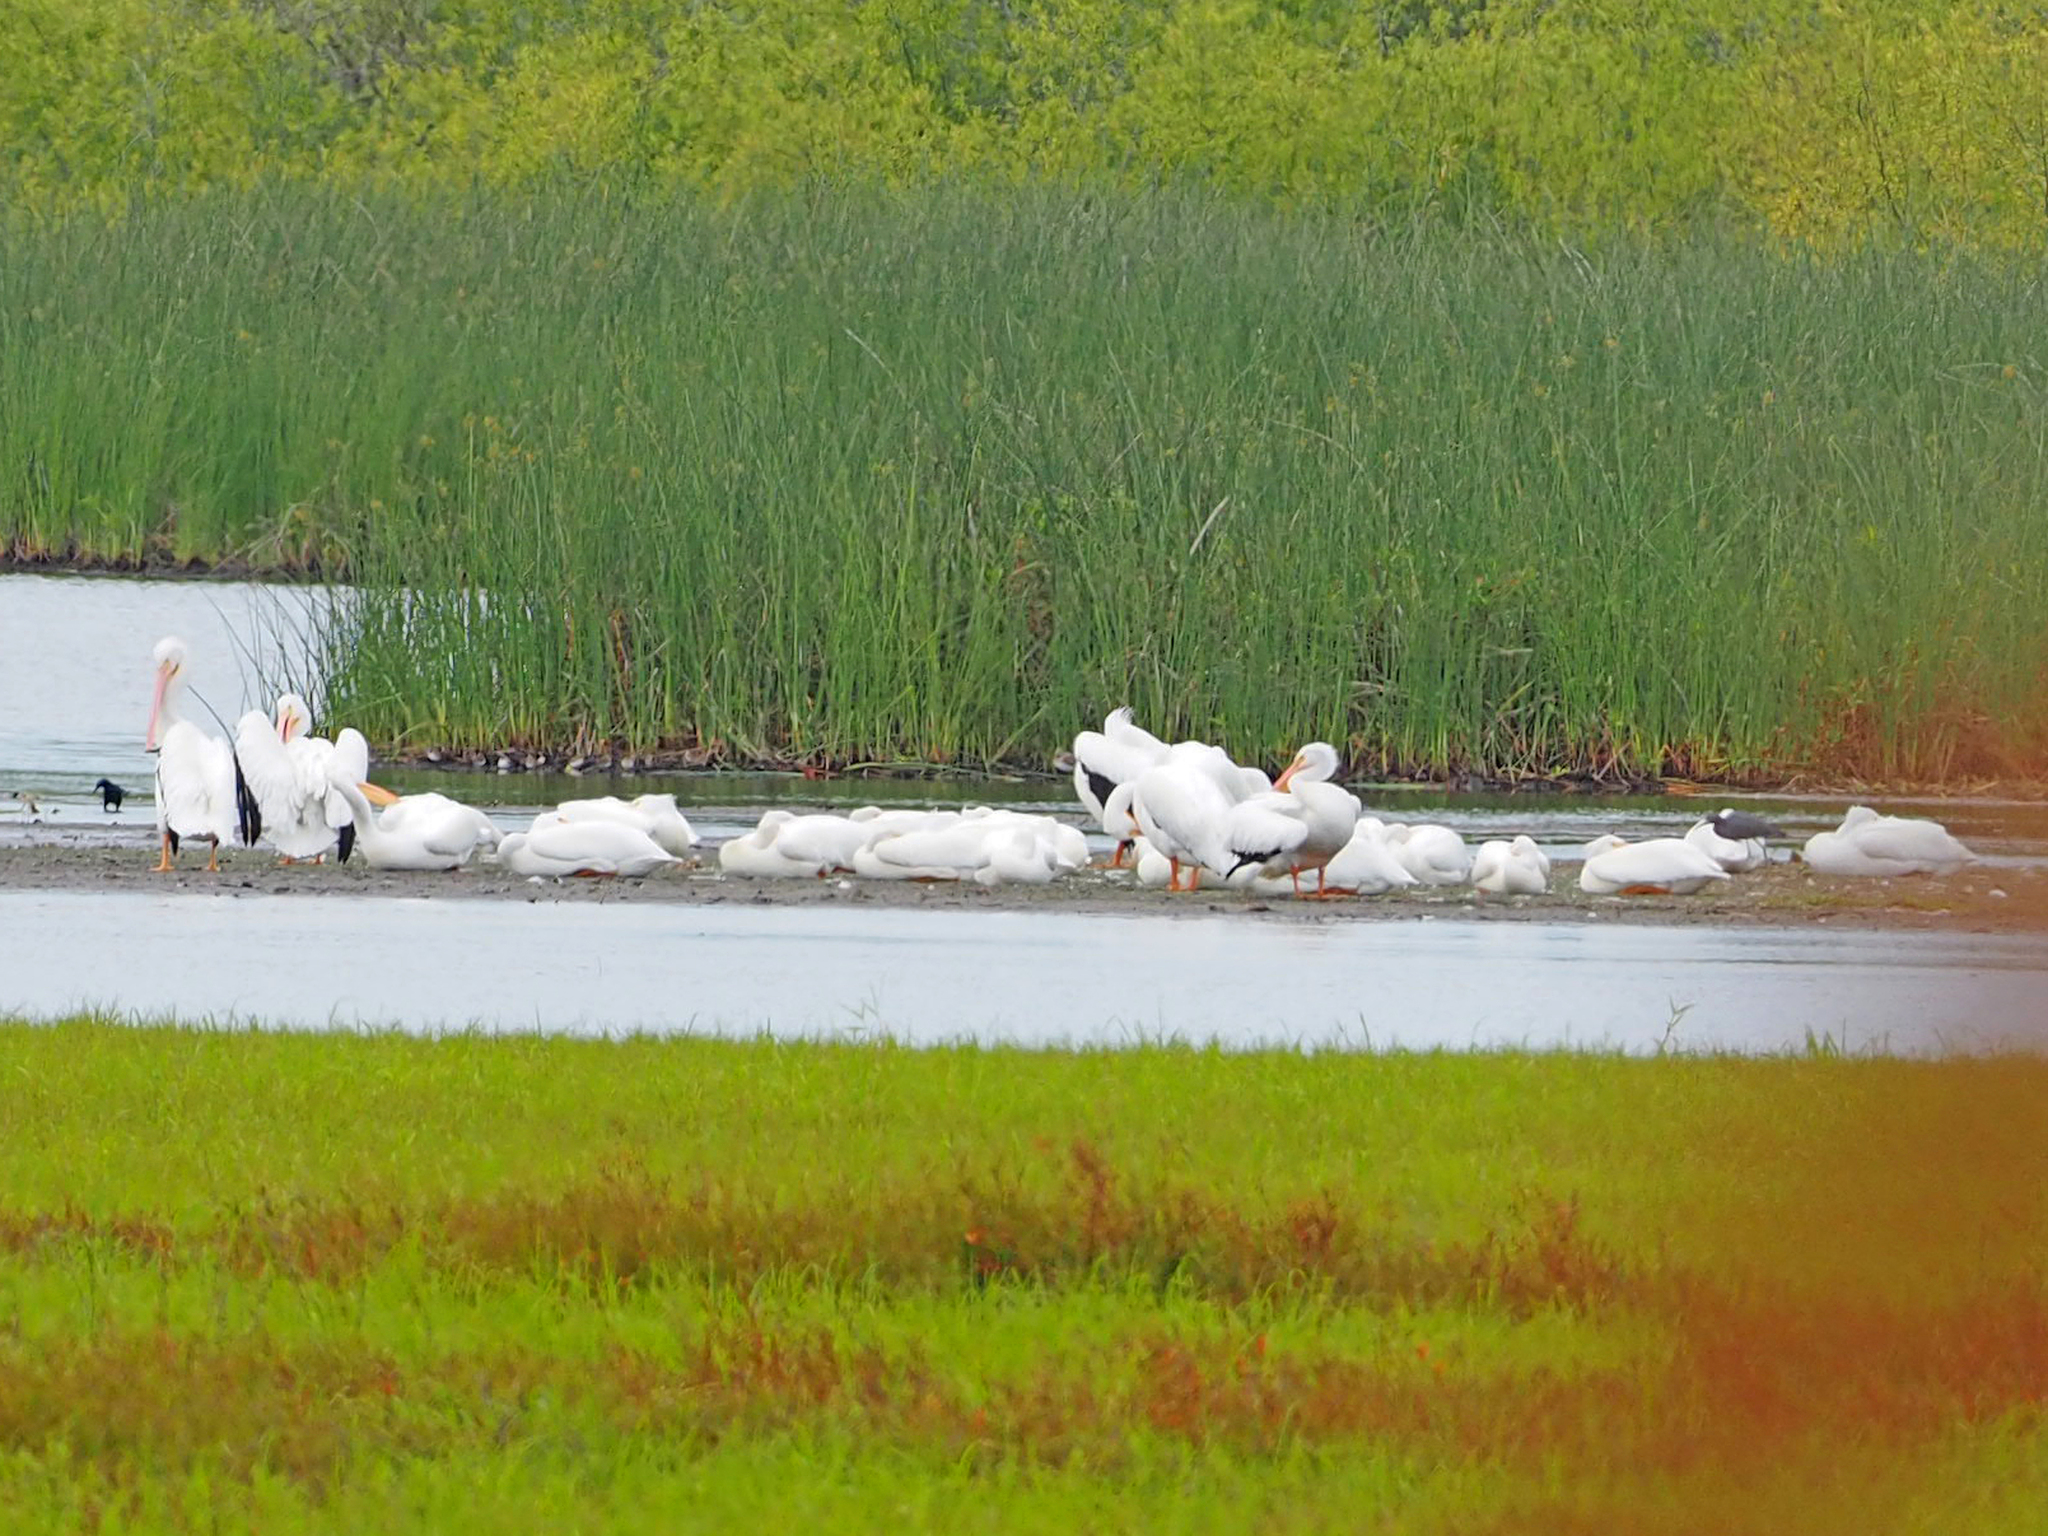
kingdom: Animalia
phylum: Chordata
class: Aves
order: Pelecaniformes
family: Pelecanidae
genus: Pelecanus
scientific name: Pelecanus erythrorhynchos
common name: American white pelican
